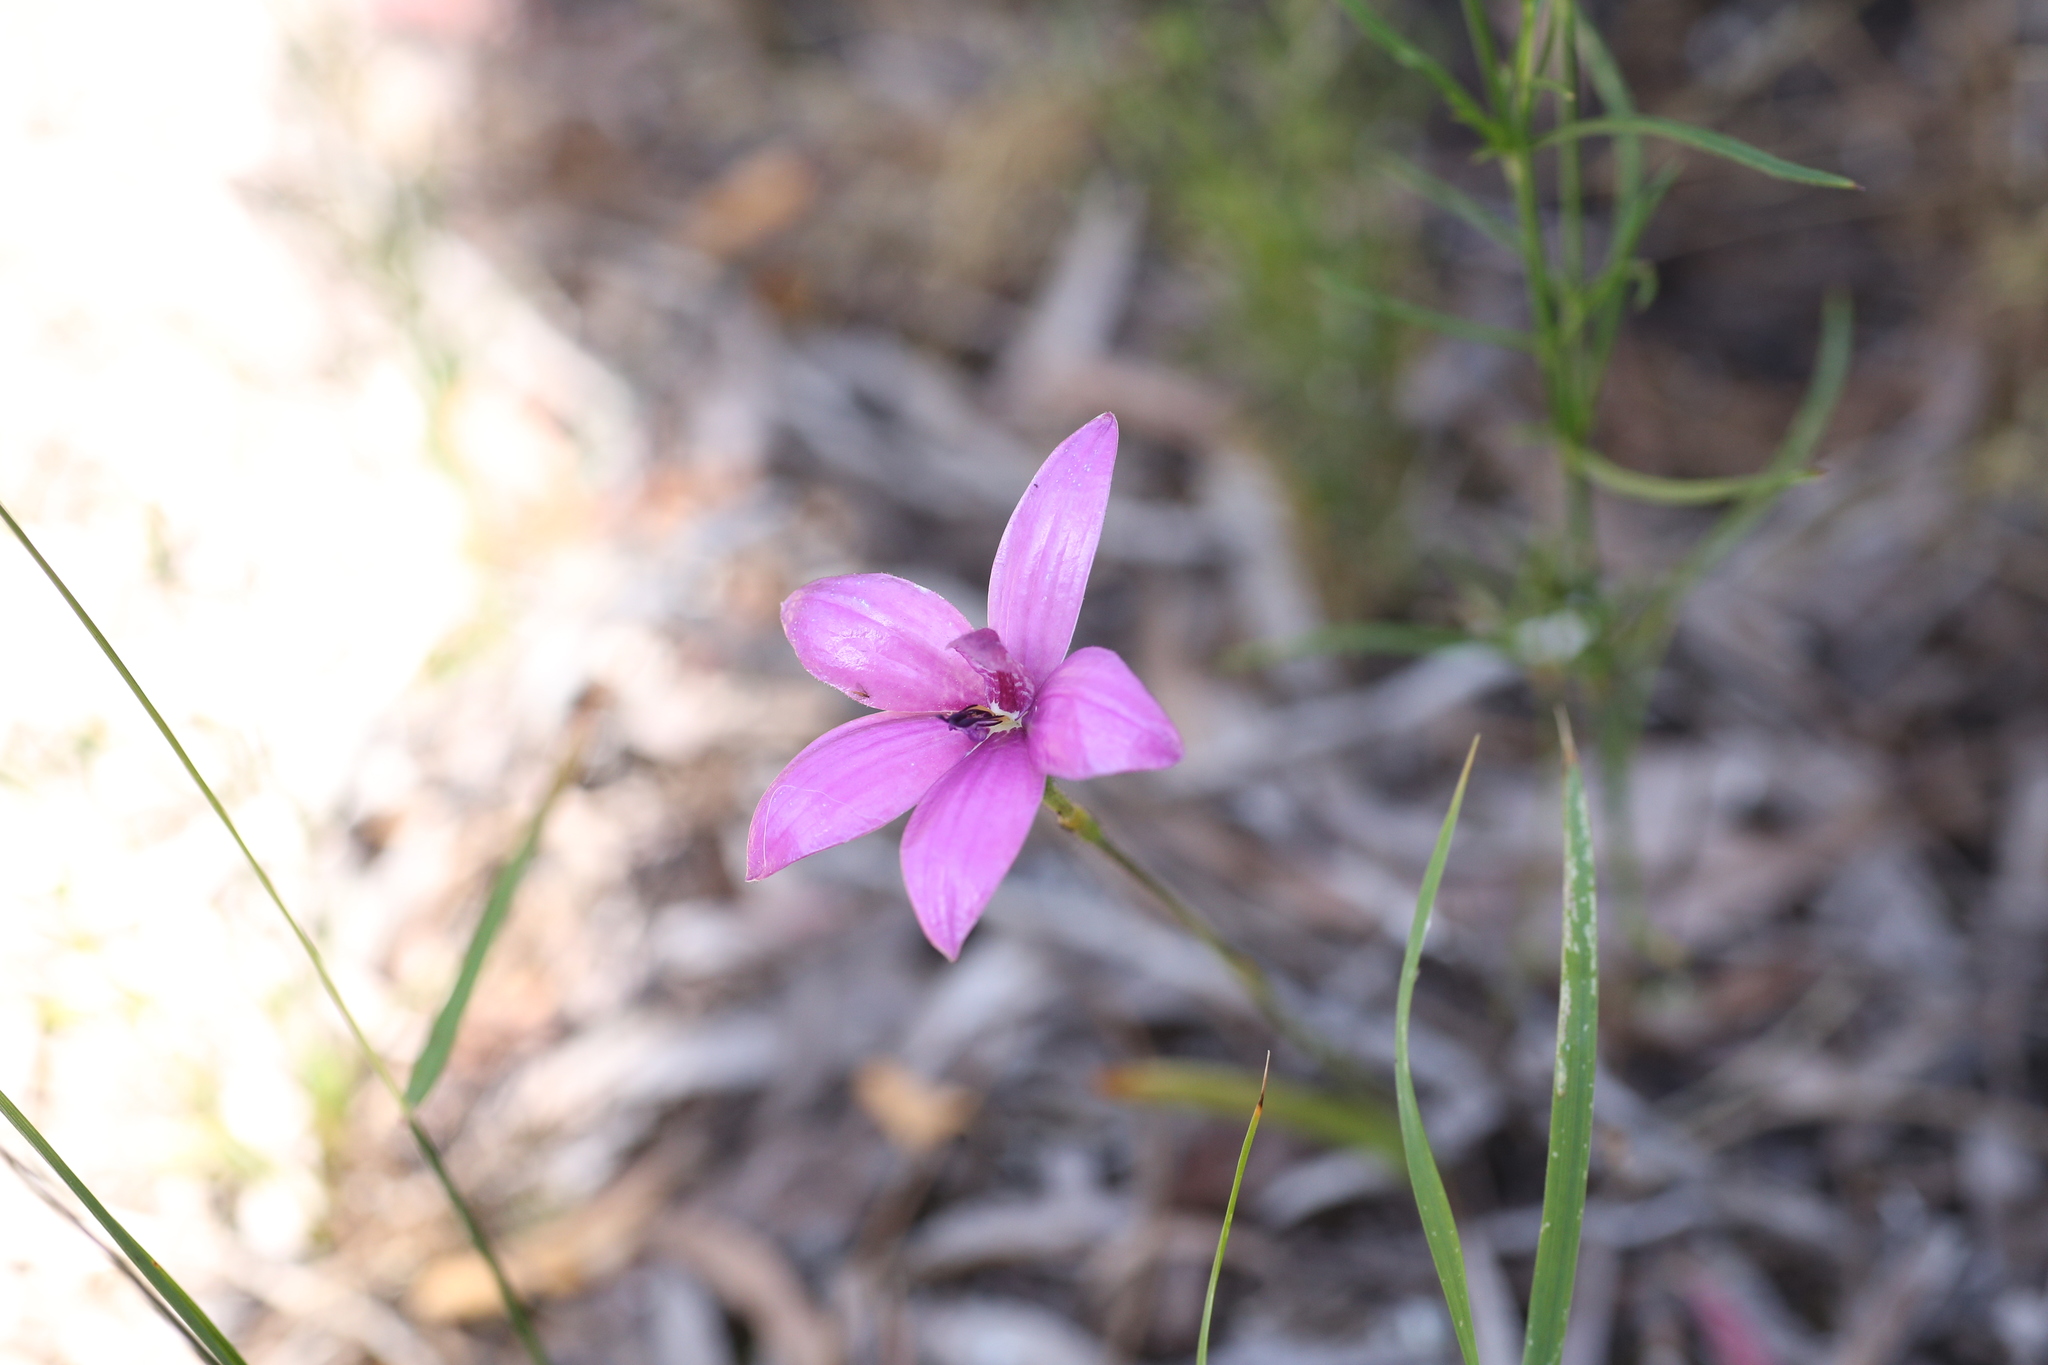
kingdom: Plantae
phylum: Tracheophyta
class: Liliopsida
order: Asparagales
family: Orchidaceae
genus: Caladenia
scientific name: Caladenia emarginata
